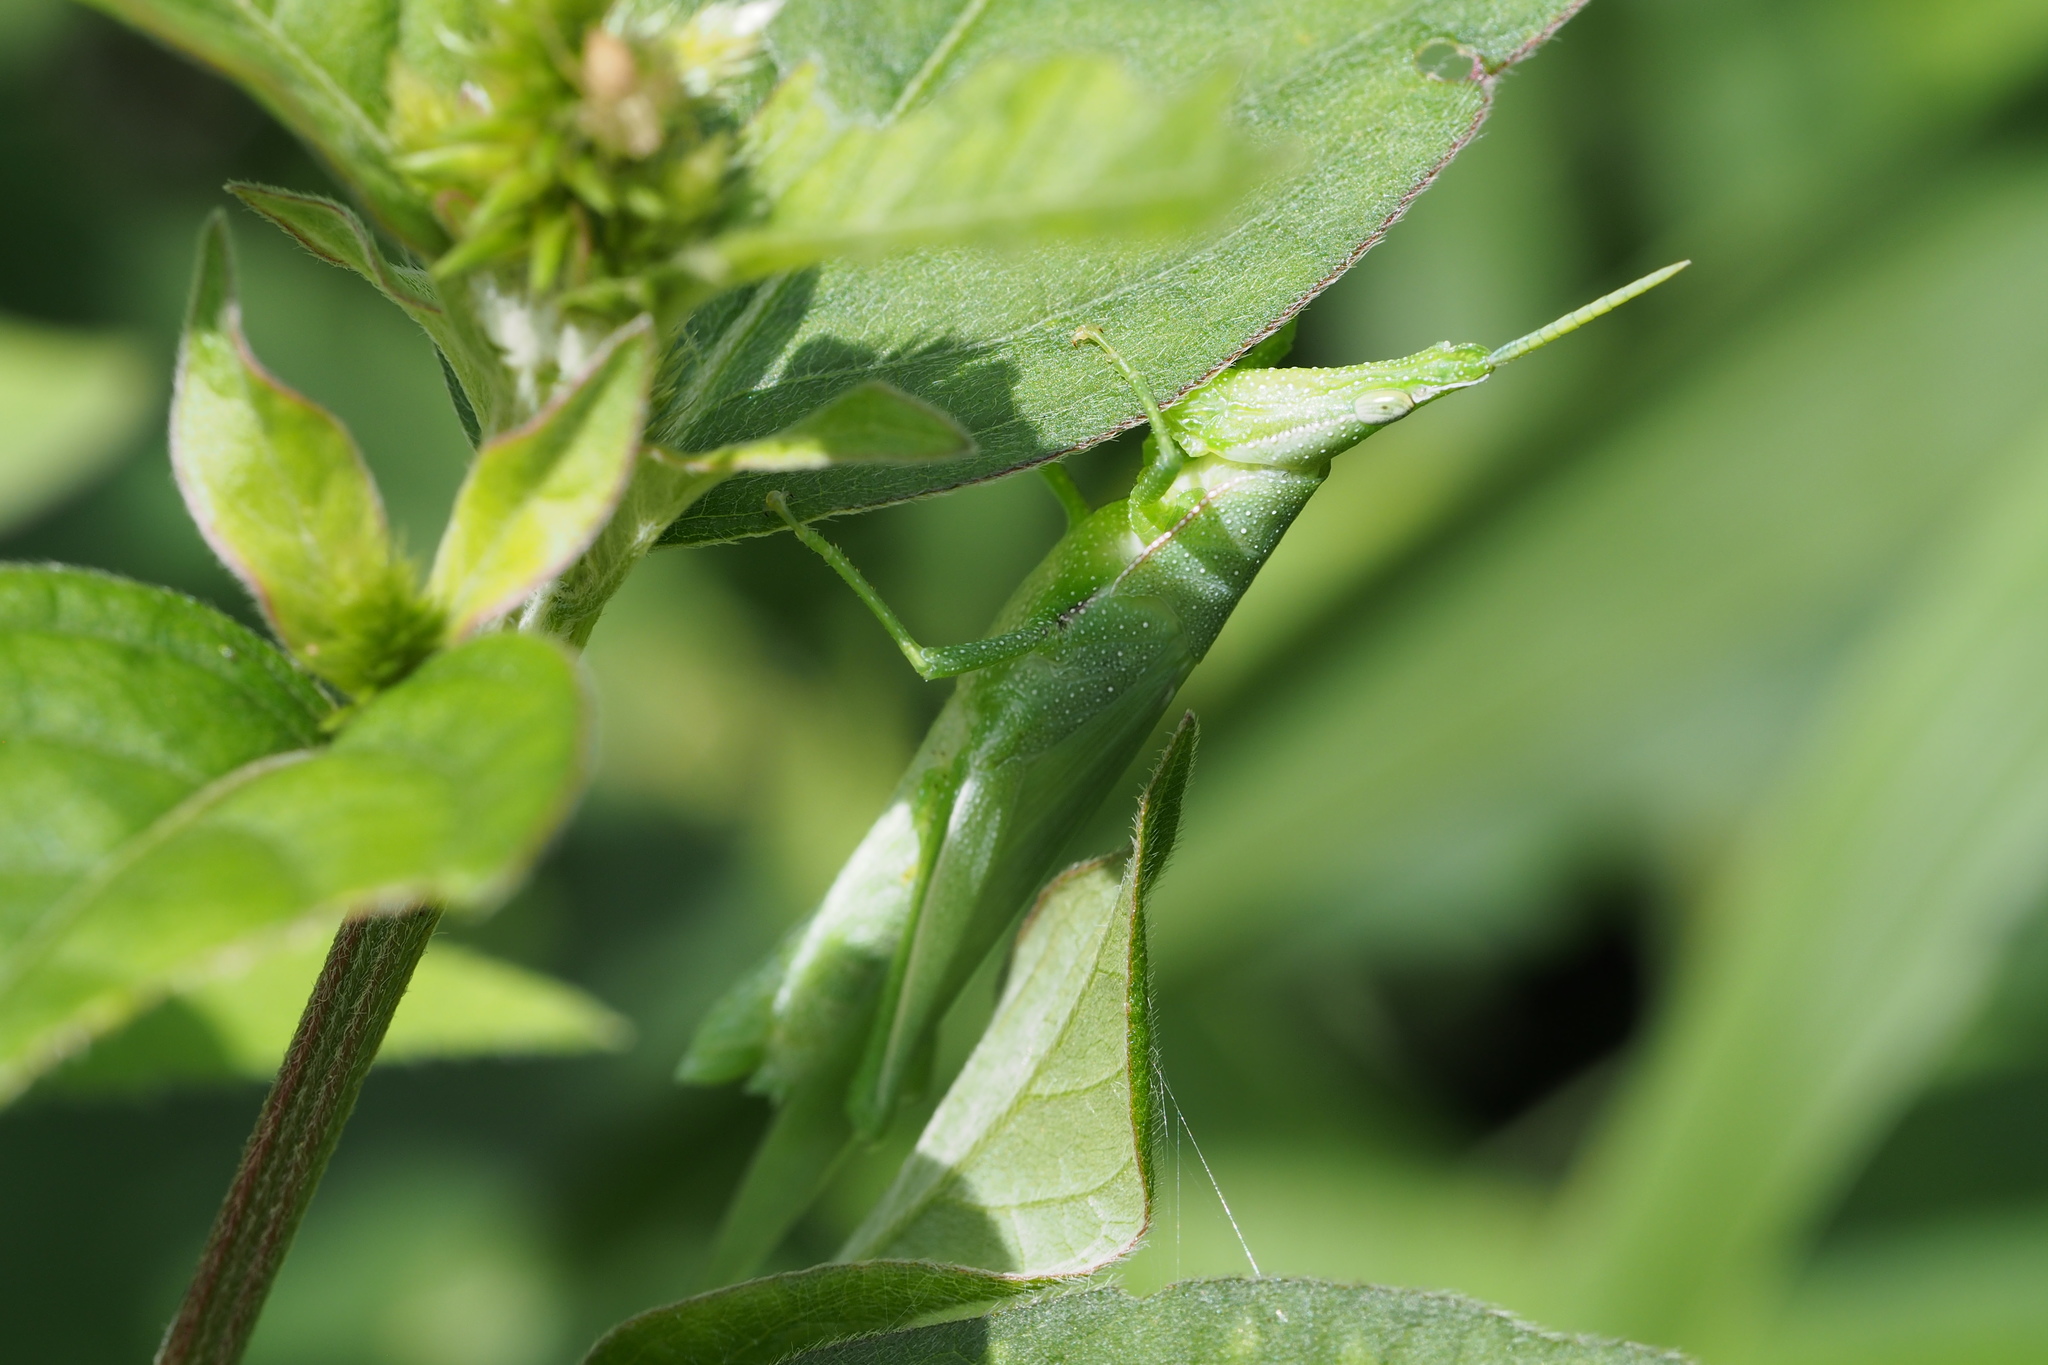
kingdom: Animalia
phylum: Arthropoda
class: Insecta
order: Orthoptera
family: Pyrgomorphidae
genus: Atractomorpha
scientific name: Atractomorpha lata
